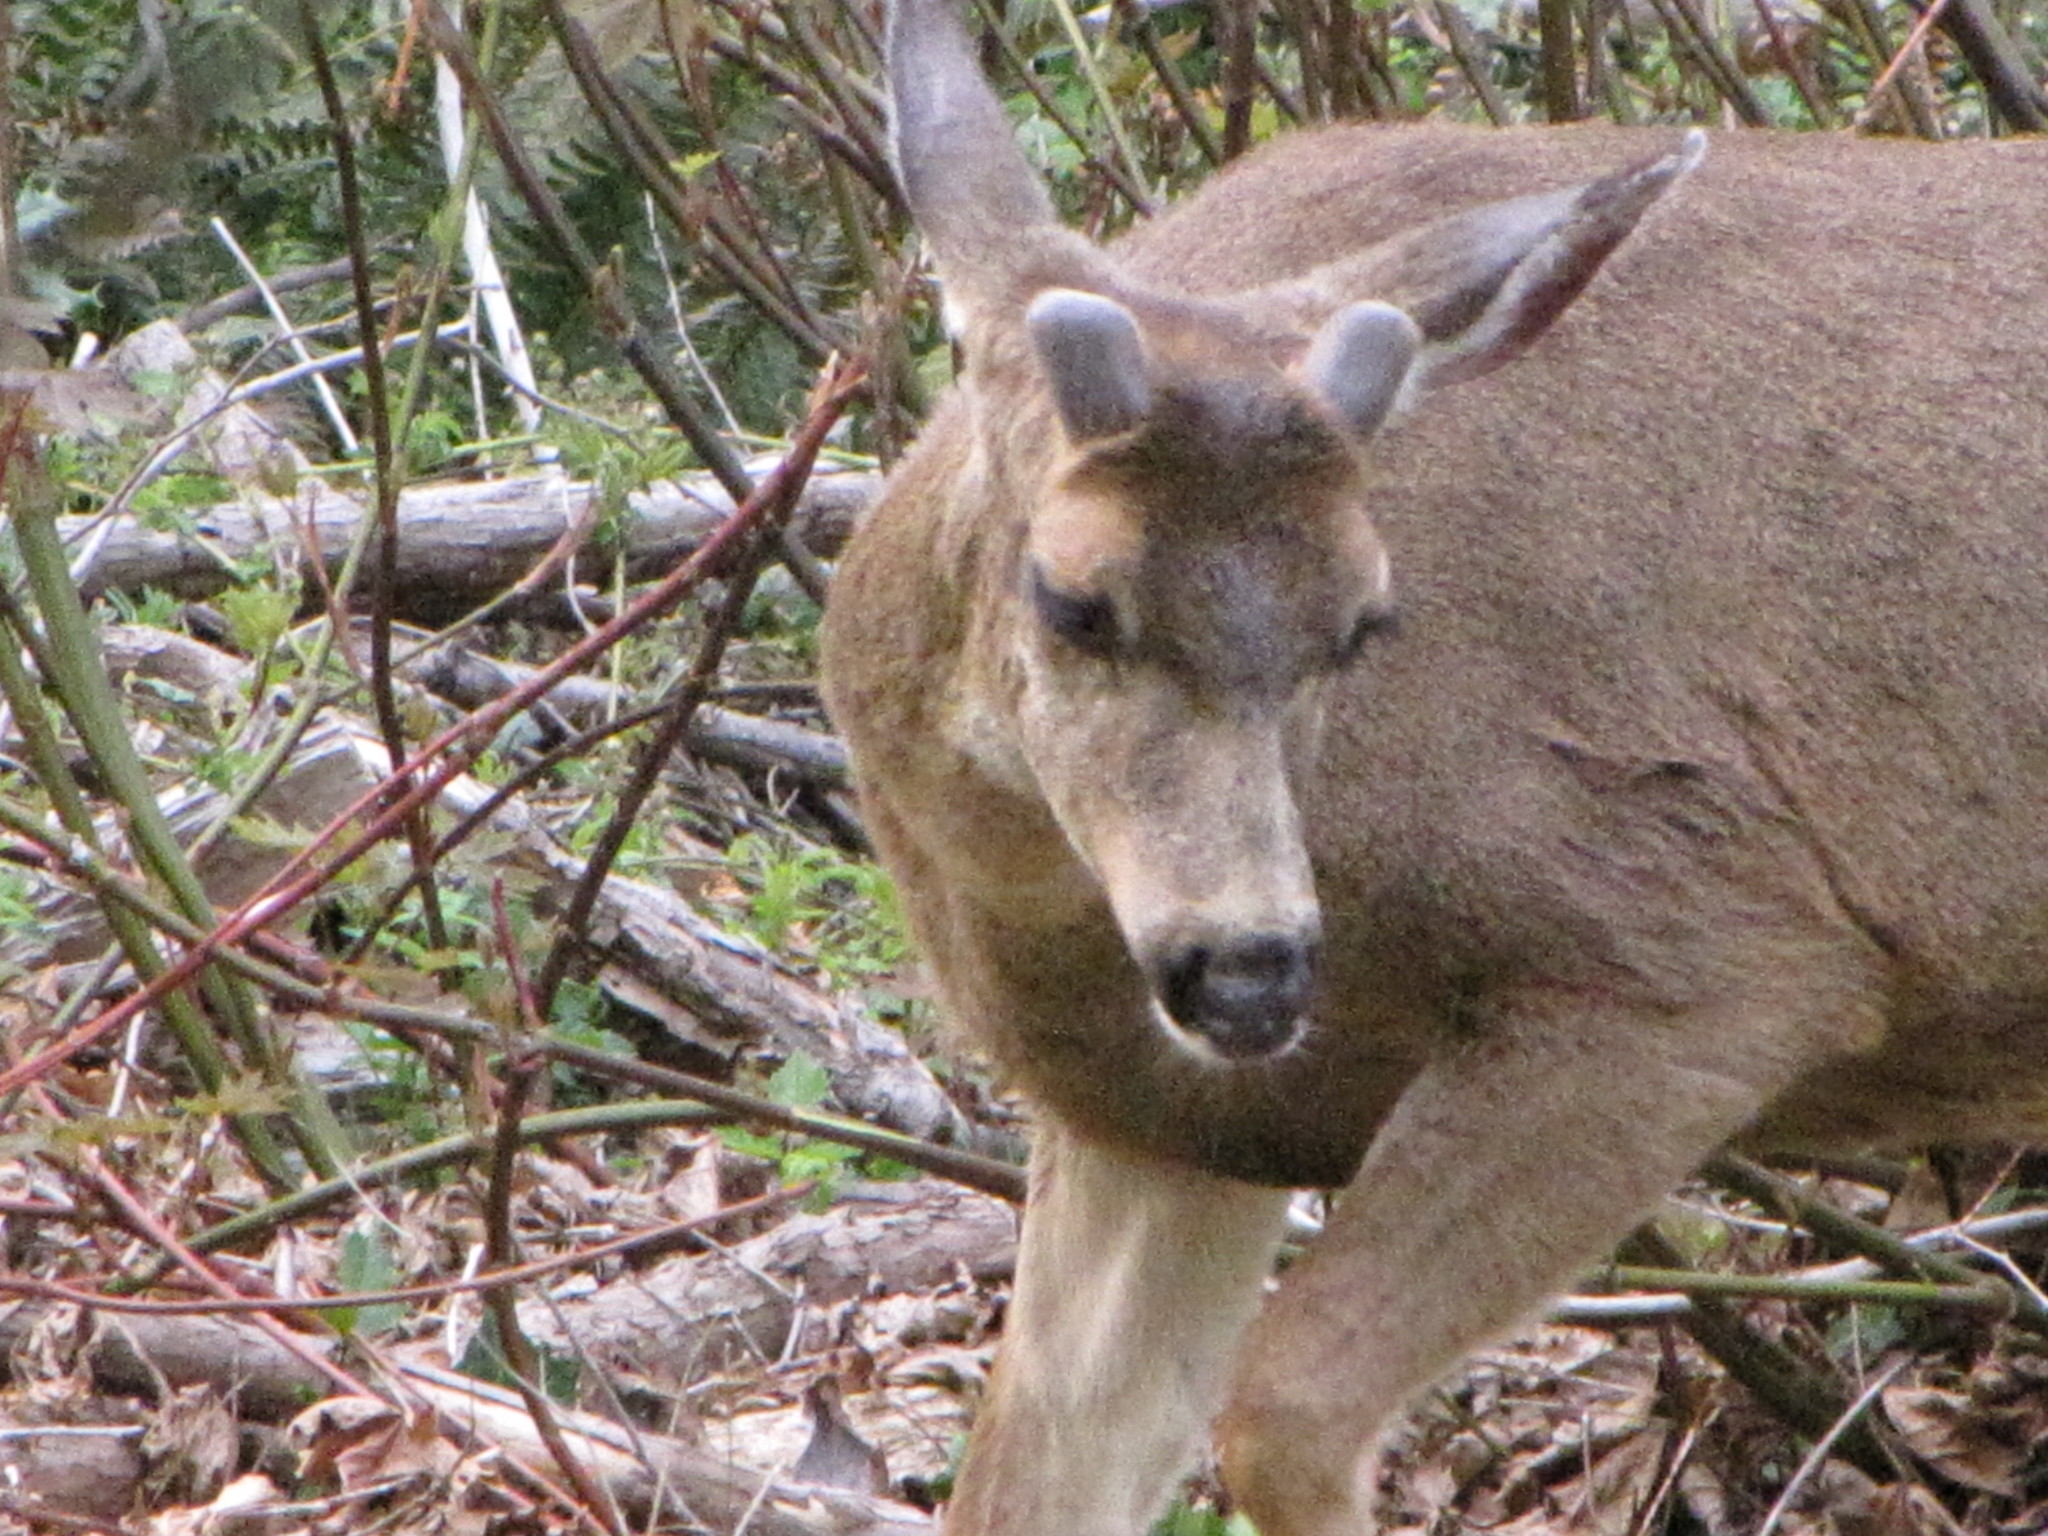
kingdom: Animalia
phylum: Chordata
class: Mammalia
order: Artiodactyla
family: Cervidae
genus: Odocoileus
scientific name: Odocoileus hemionus
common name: Mule deer
